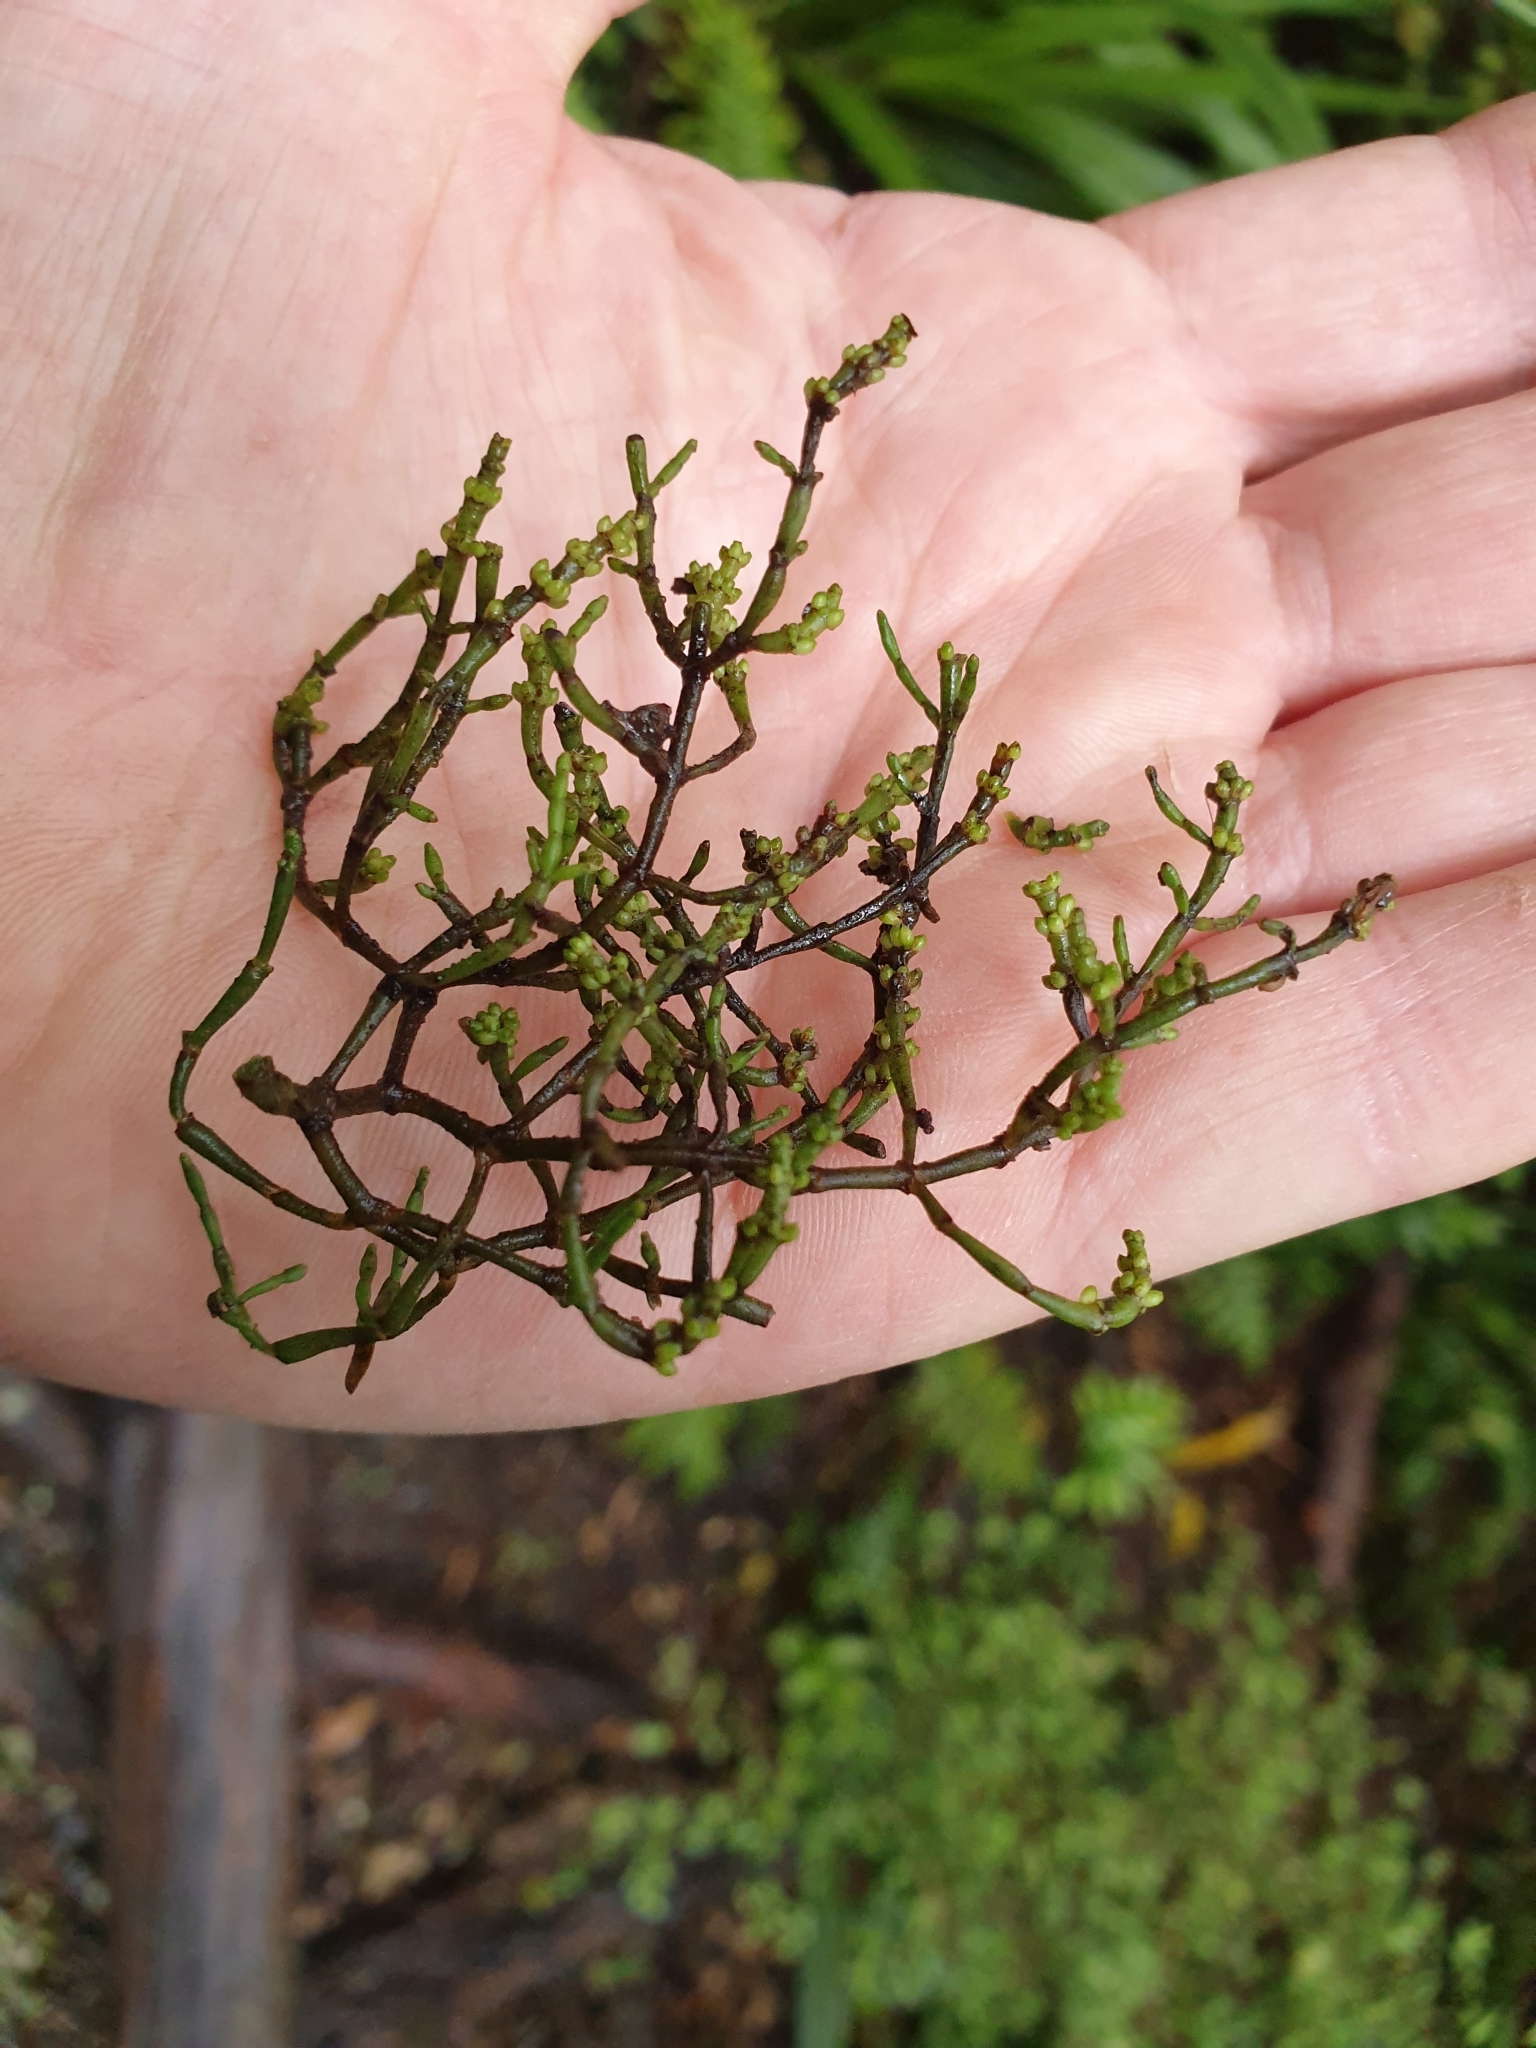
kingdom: Plantae
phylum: Tracheophyta
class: Magnoliopsida
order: Santalales
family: Viscaceae
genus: Korthalsella
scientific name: Korthalsella salicornioides
